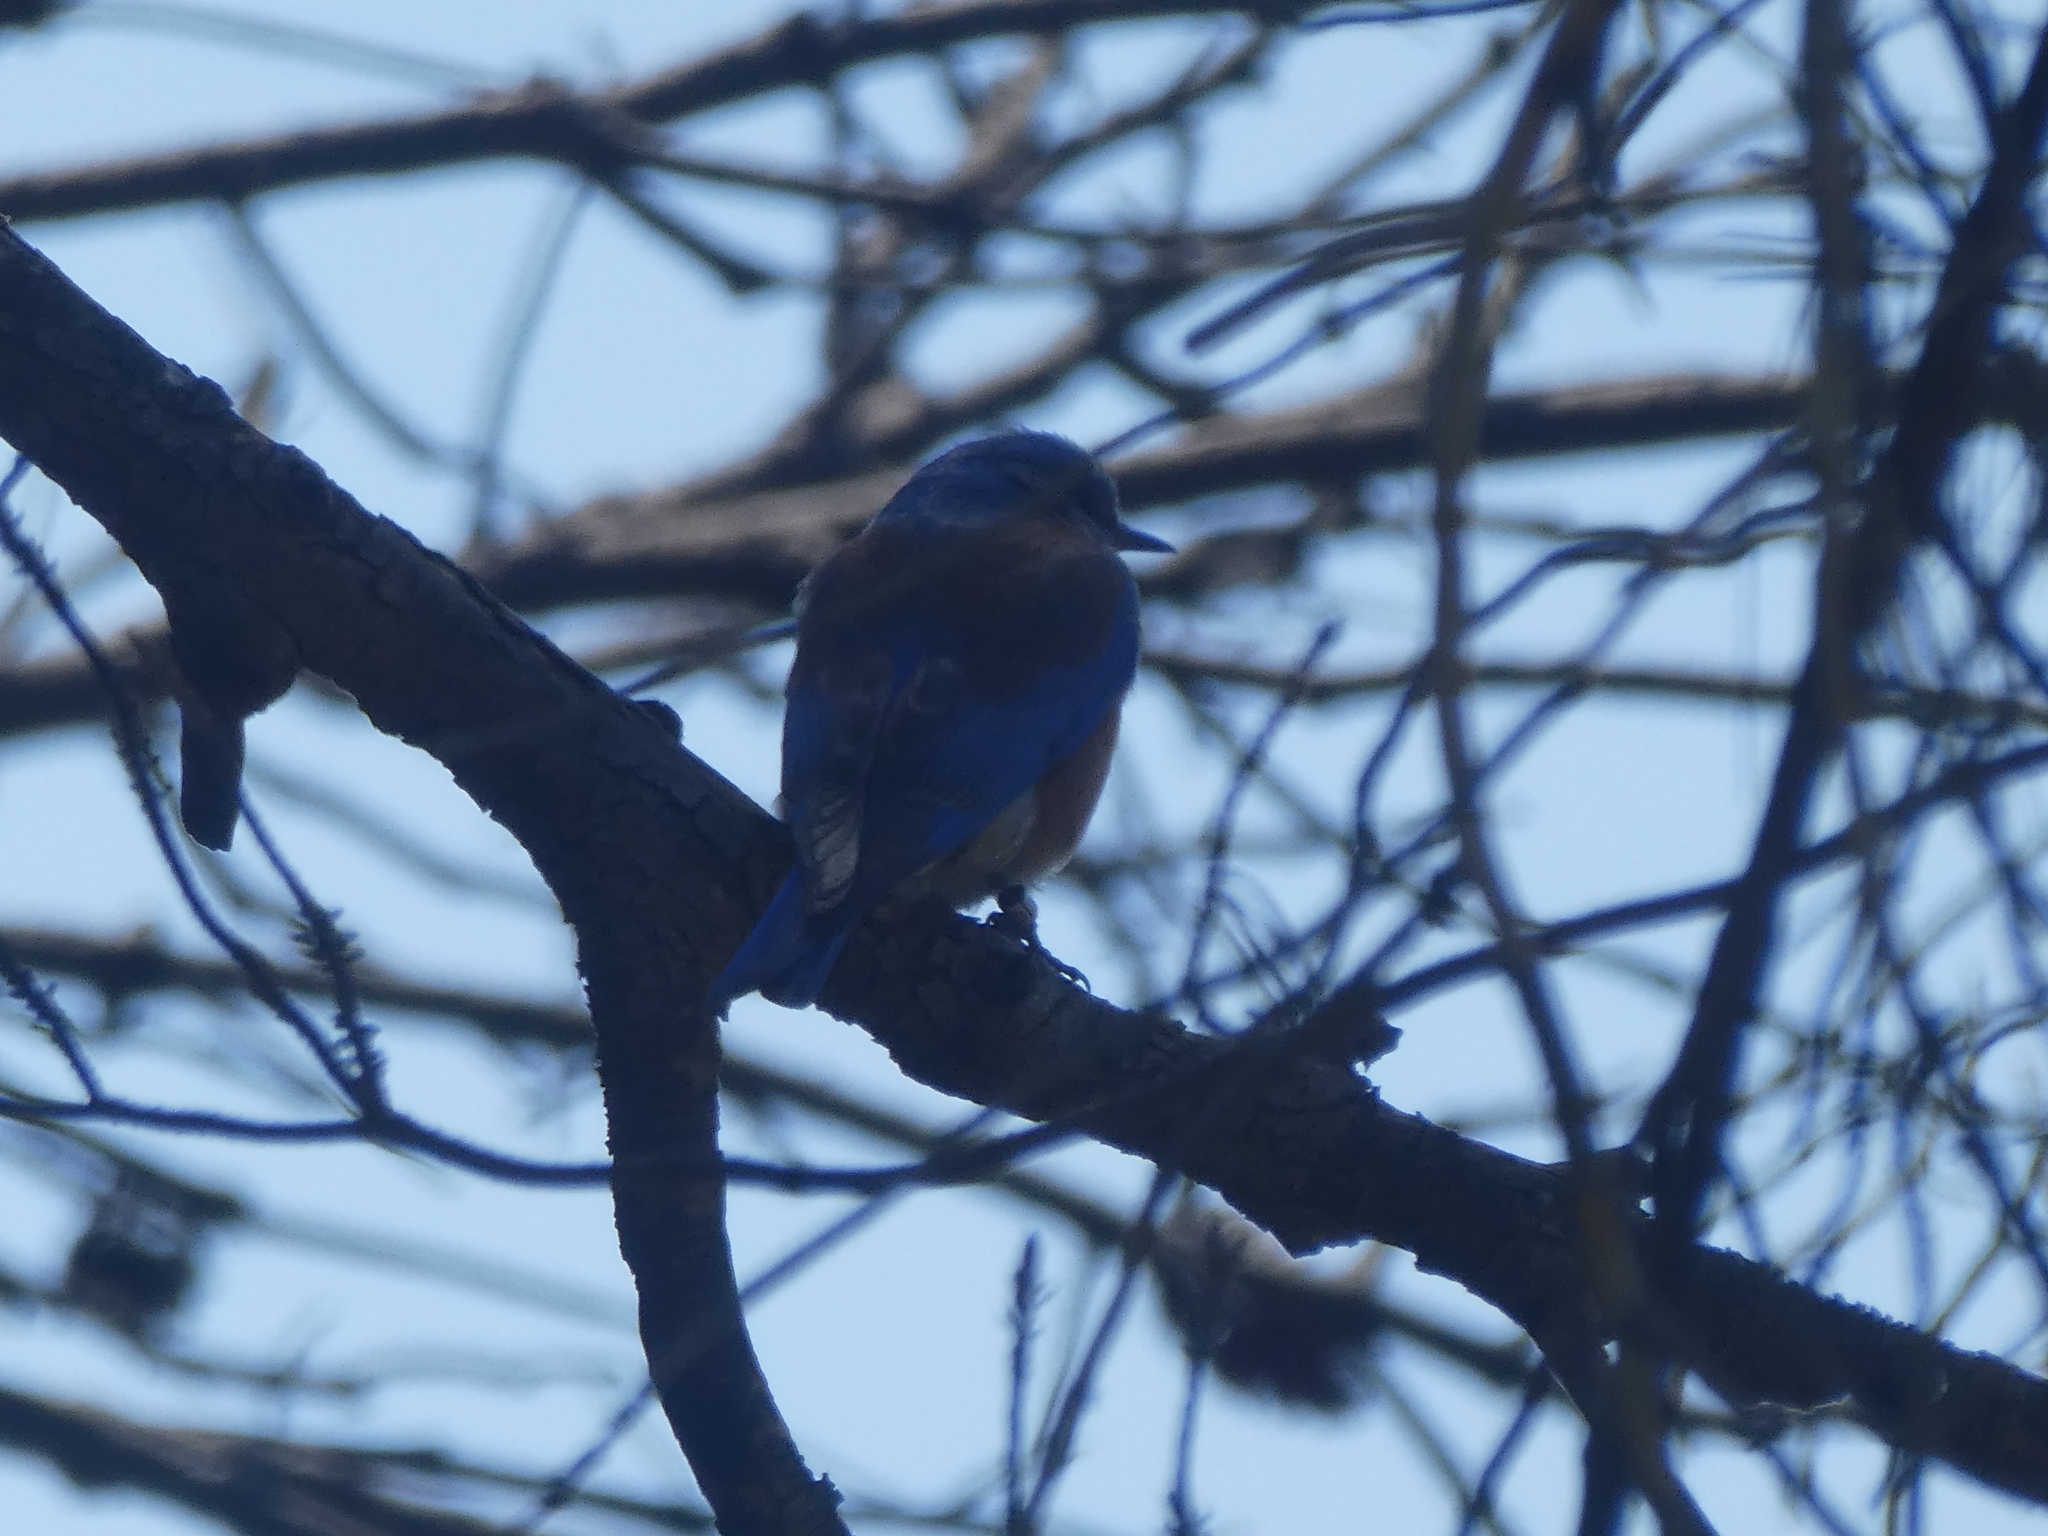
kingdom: Animalia
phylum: Chordata
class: Aves
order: Passeriformes
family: Turdidae
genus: Sialia
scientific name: Sialia mexicana
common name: Western bluebird
